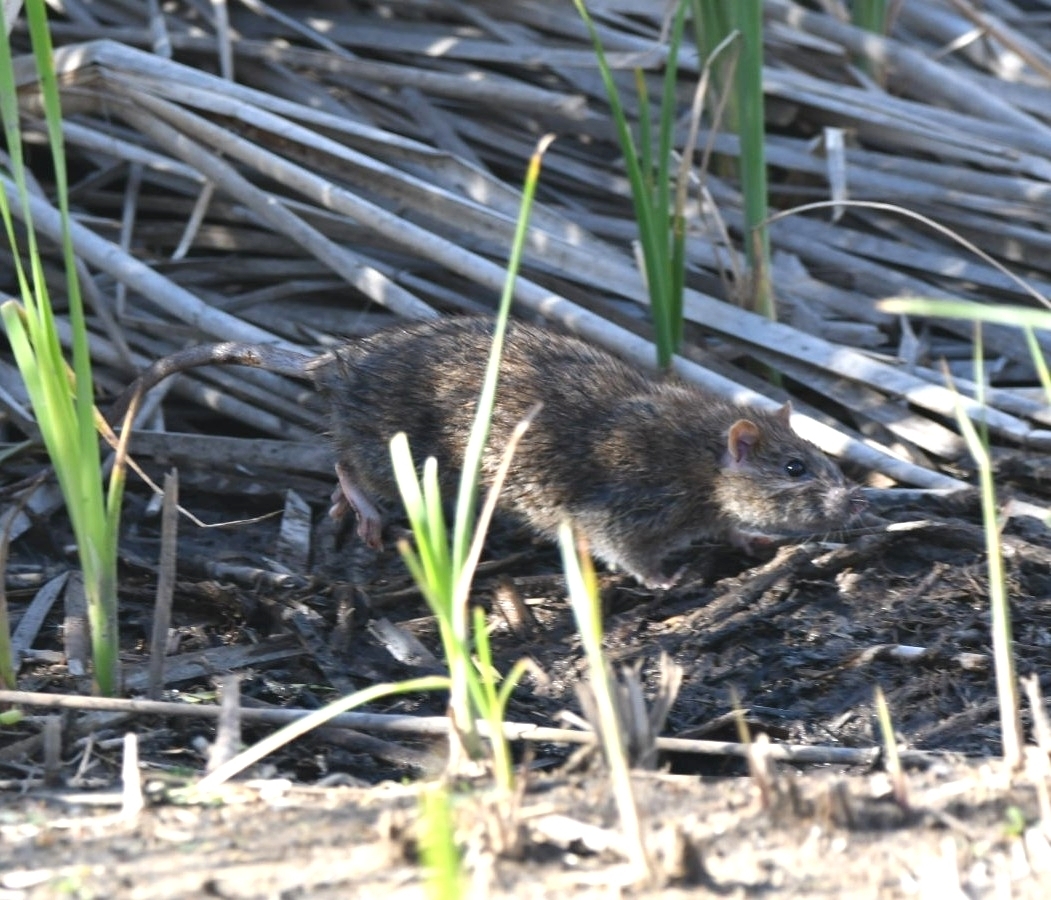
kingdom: Animalia
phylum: Chordata
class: Mammalia
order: Rodentia
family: Muridae
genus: Rattus
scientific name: Rattus norvegicus
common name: Brown rat
